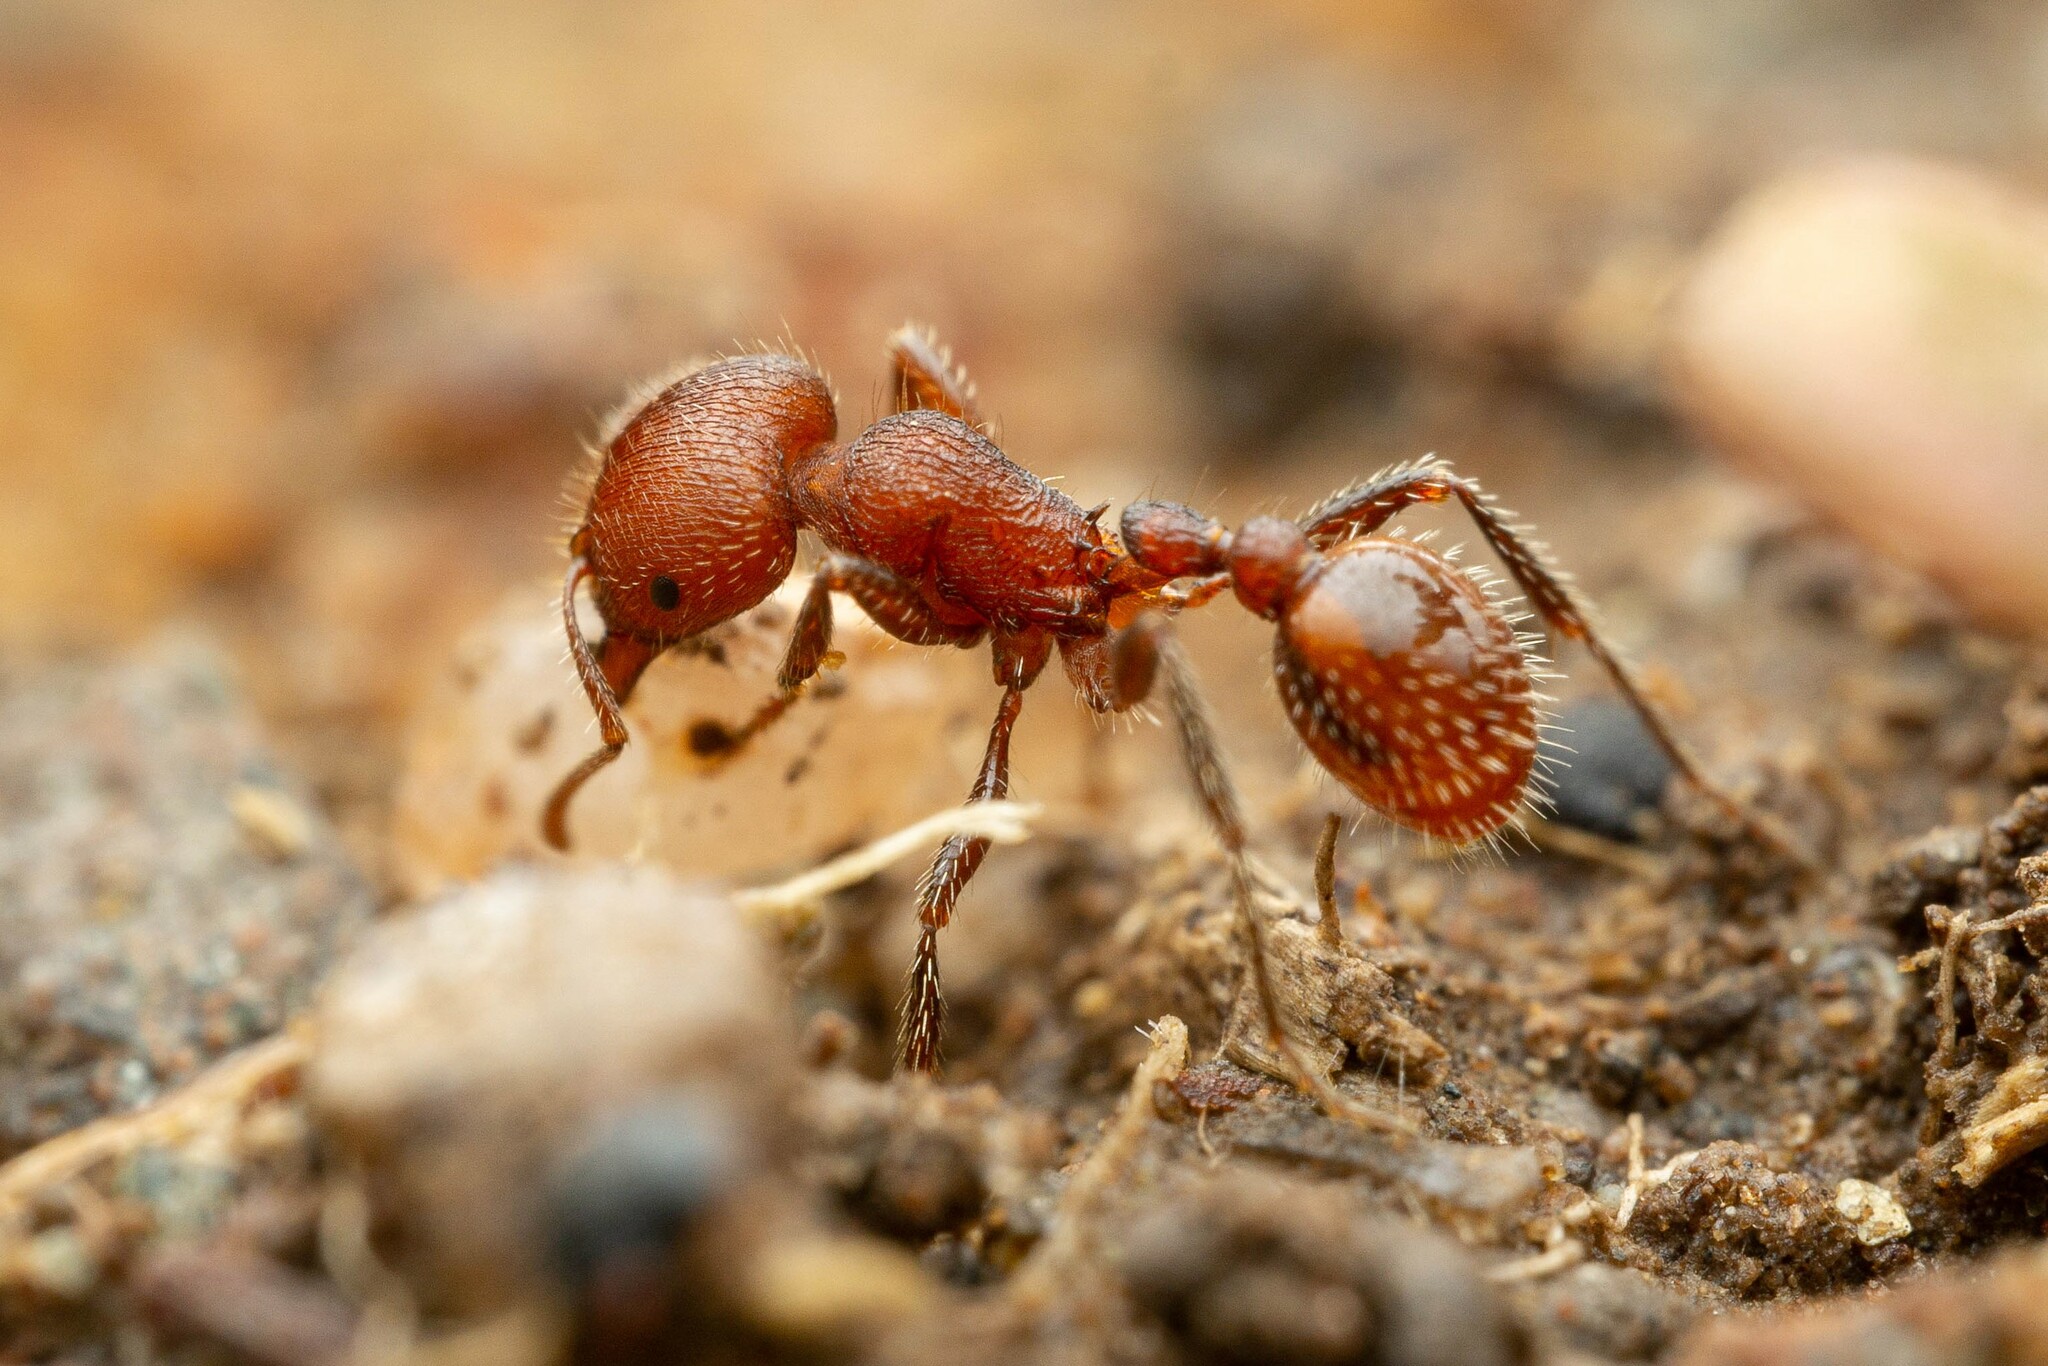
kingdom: Animalia
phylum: Arthropoda
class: Insecta
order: Hymenoptera
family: Formicidae
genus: Pogonomyrmex
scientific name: Pogonomyrmex huachucanus
